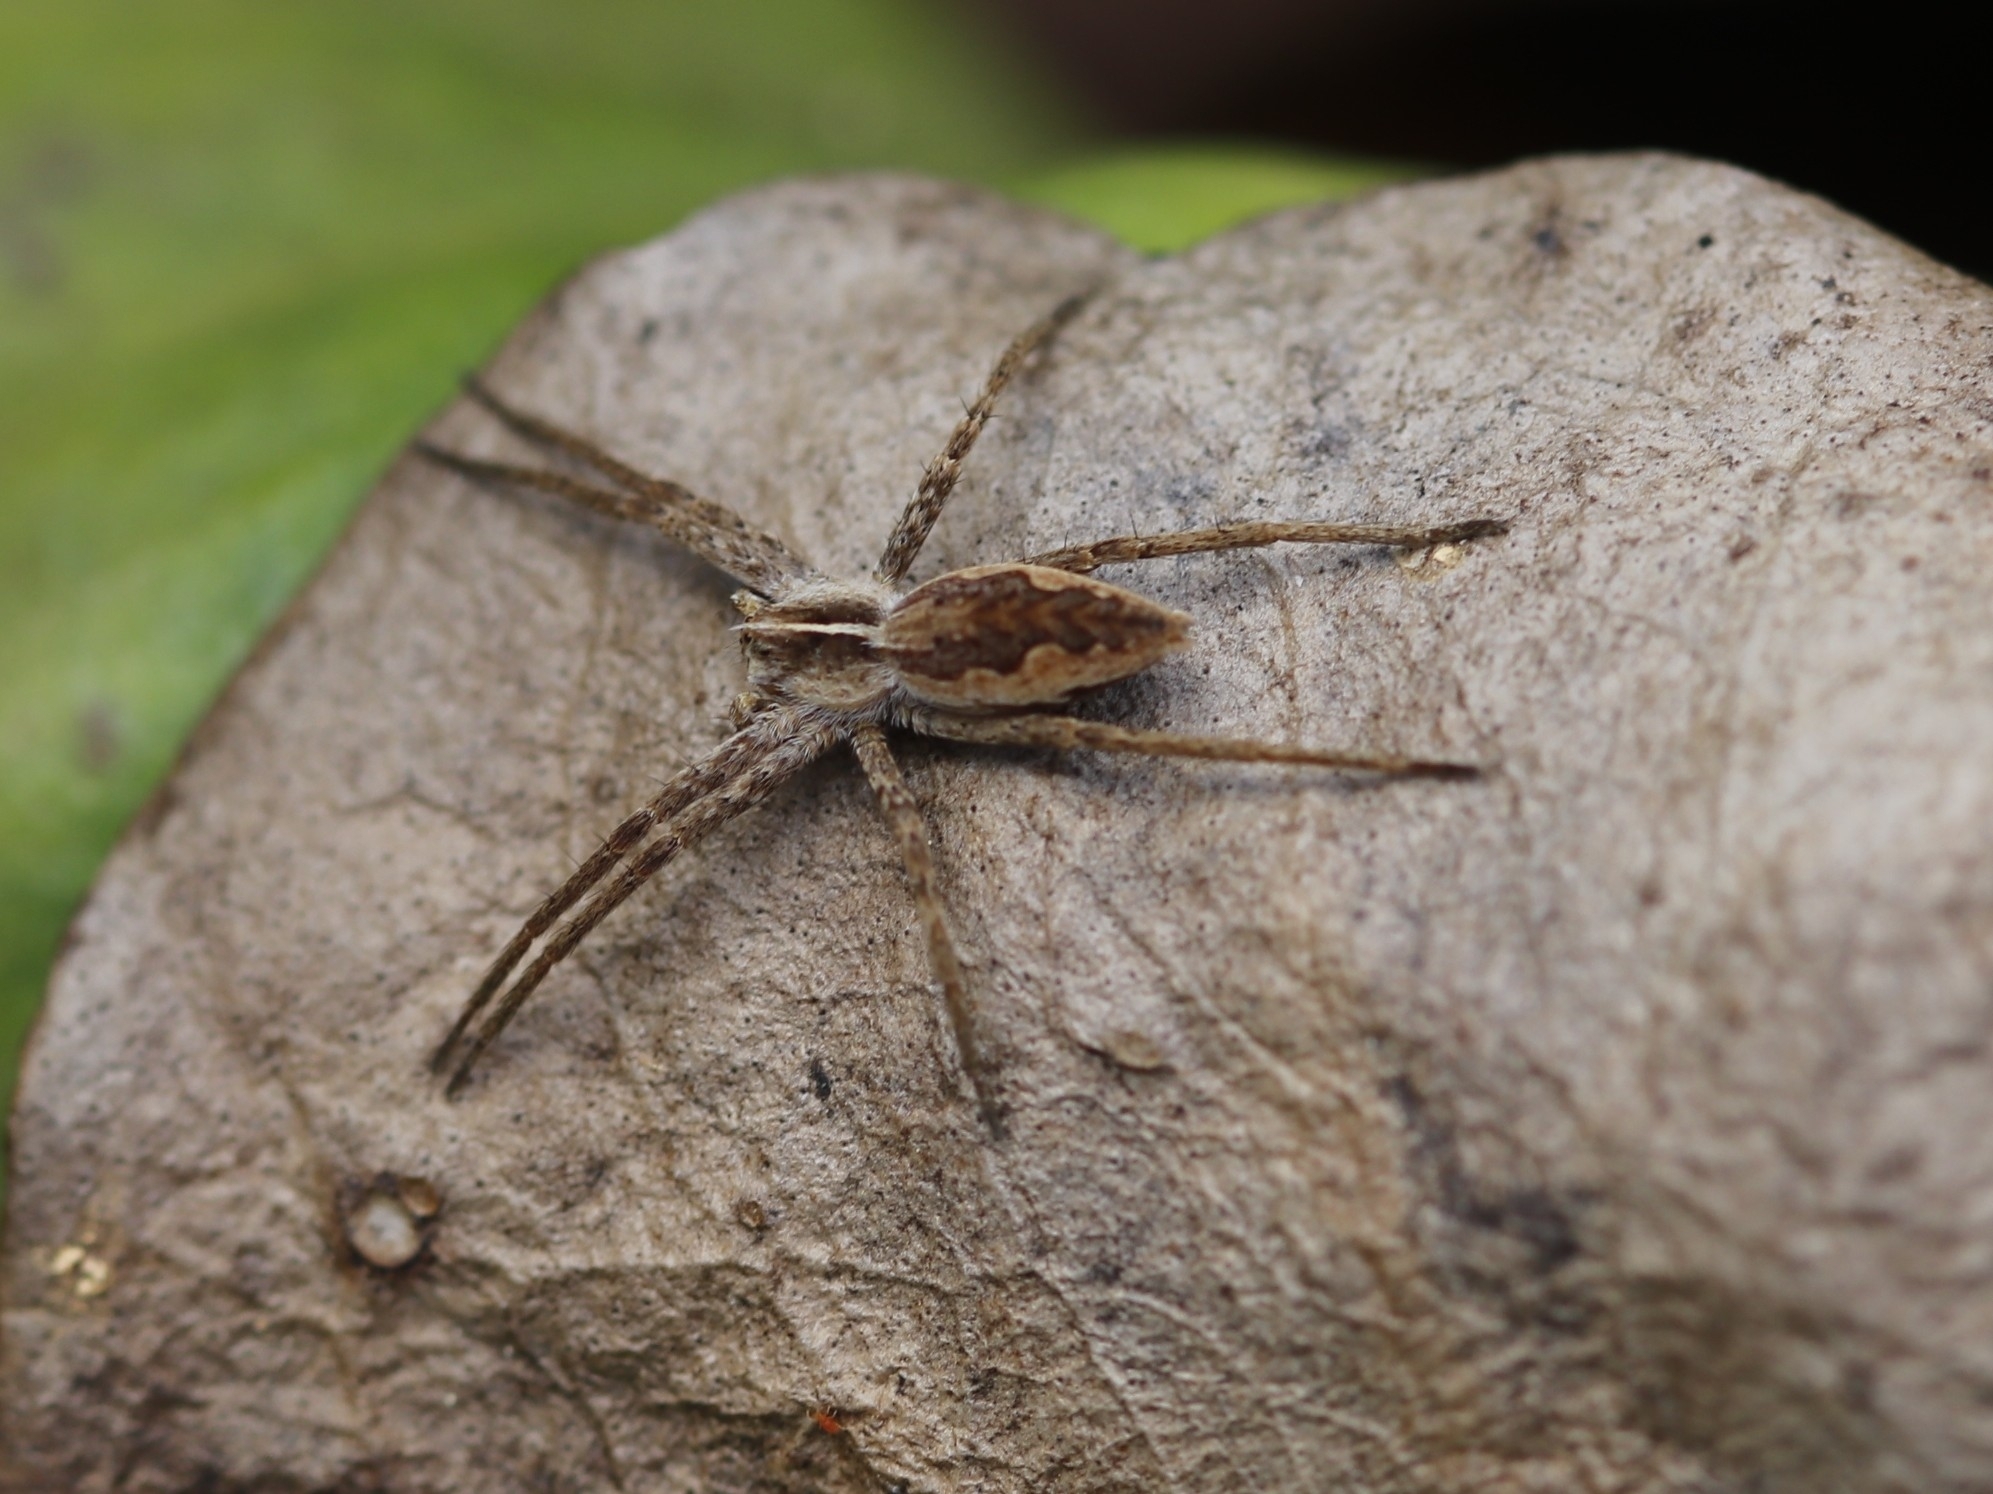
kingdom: Animalia
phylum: Arthropoda
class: Arachnida
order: Araneae
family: Pisauridae
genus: Pisaura
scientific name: Pisaura mirabilis
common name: Tent spider
